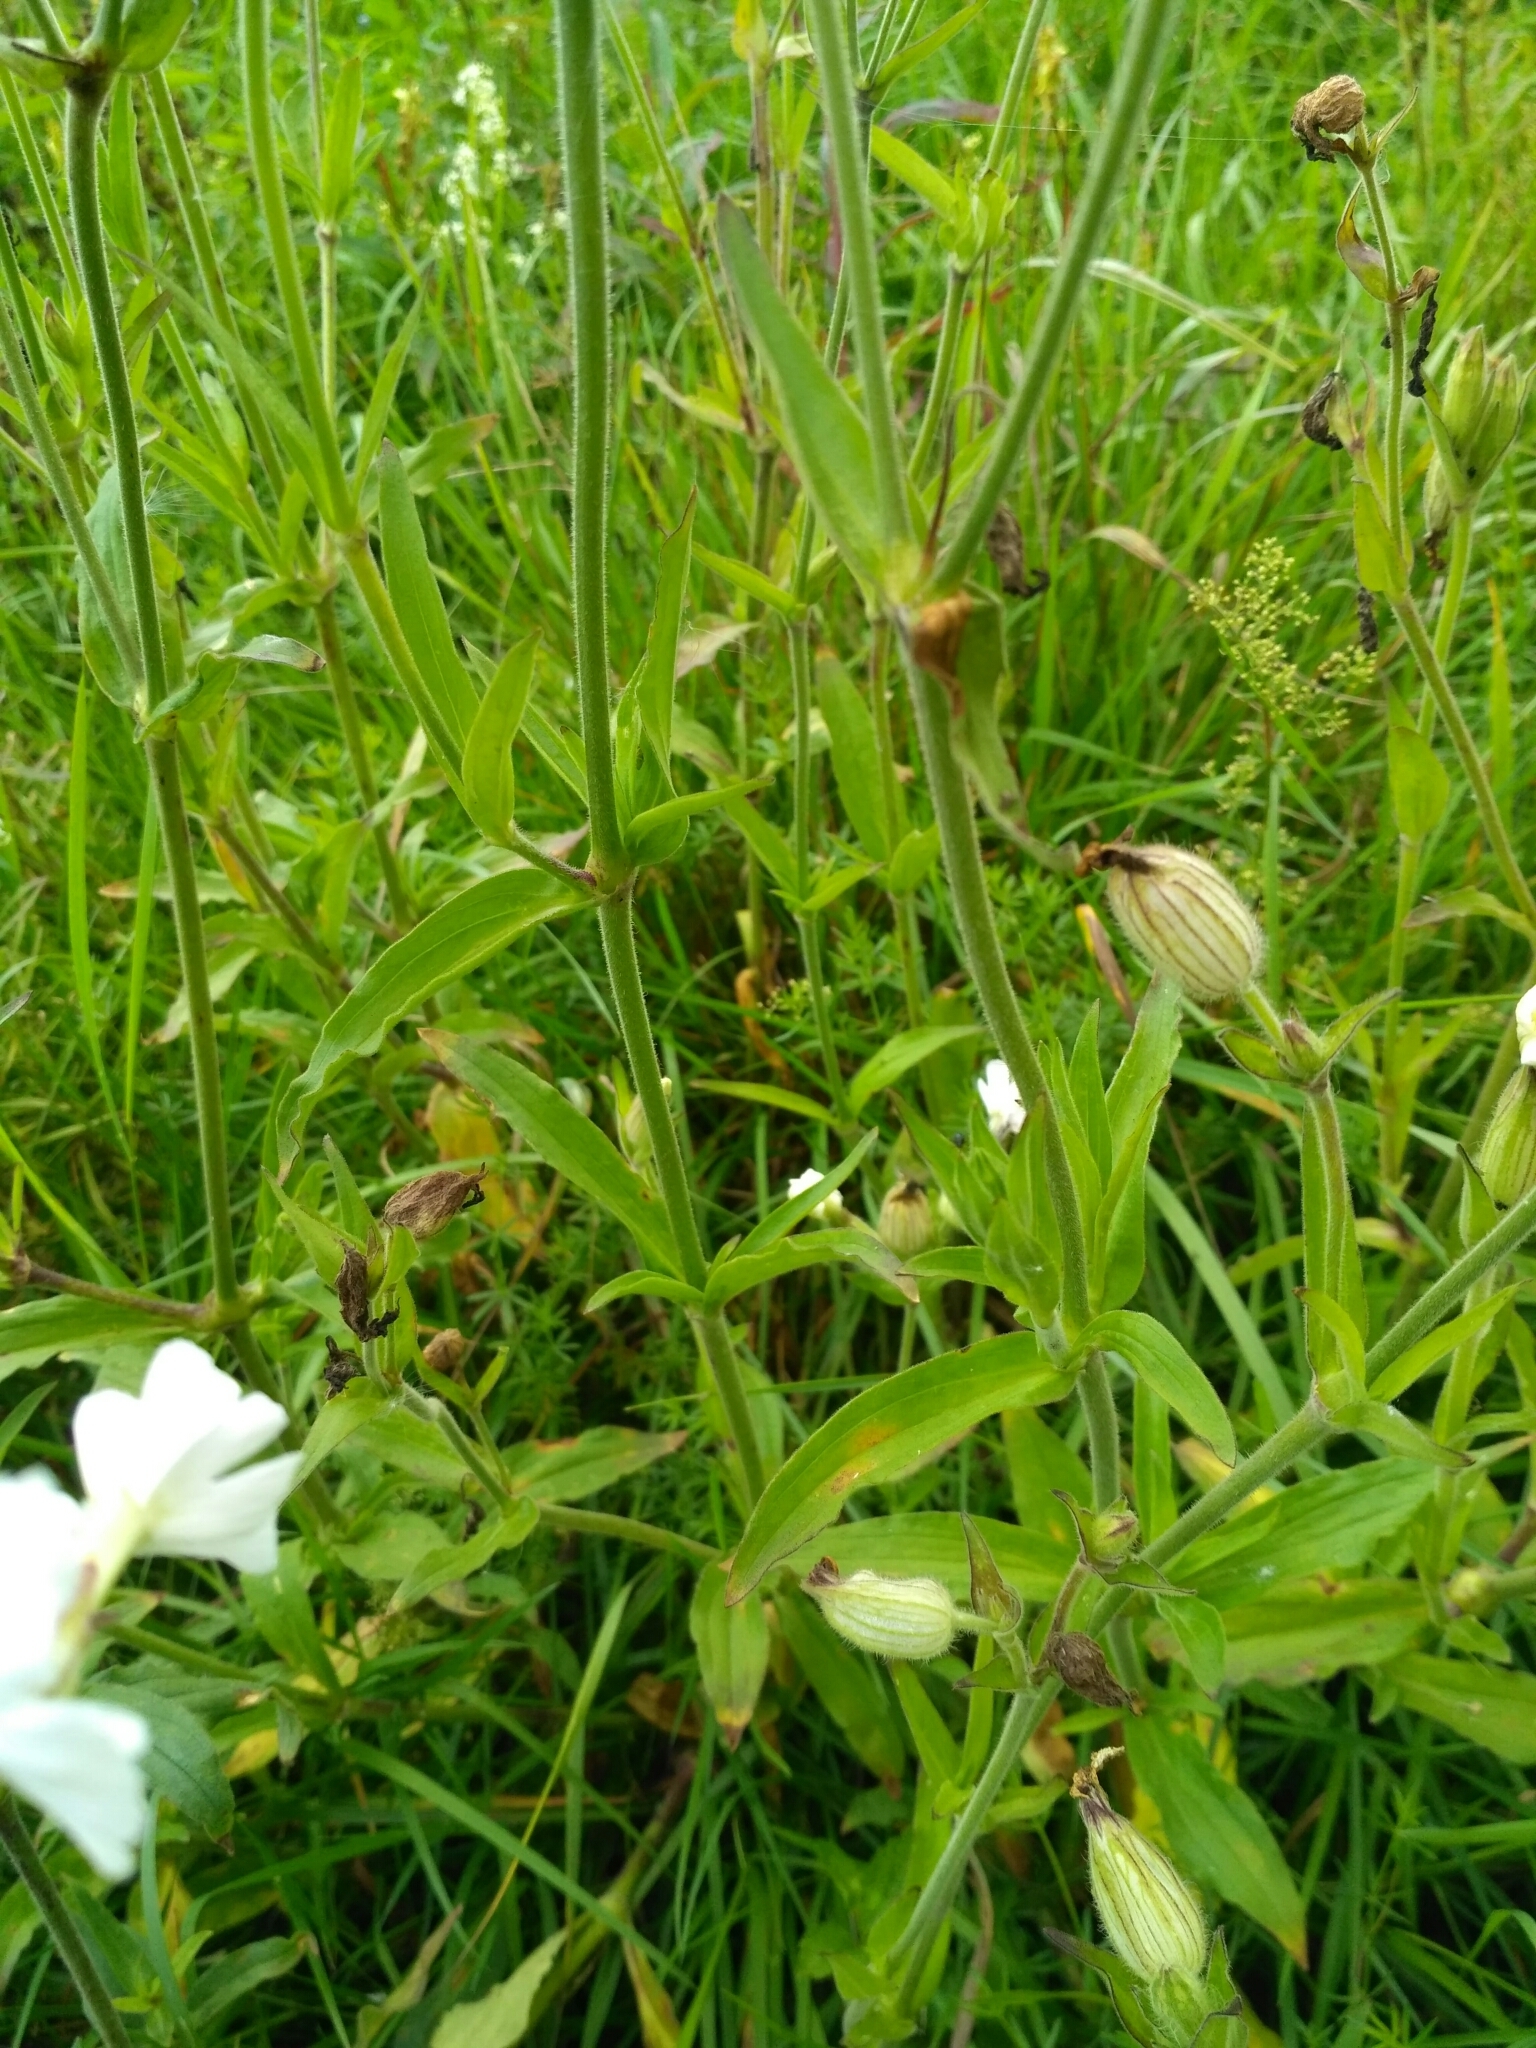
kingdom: Plantae
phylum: Tracheophyta
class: Magnoliopsida
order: Caryophyllales
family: Caryophyllaceae
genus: Silene
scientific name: Silene latifolia
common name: White campion
